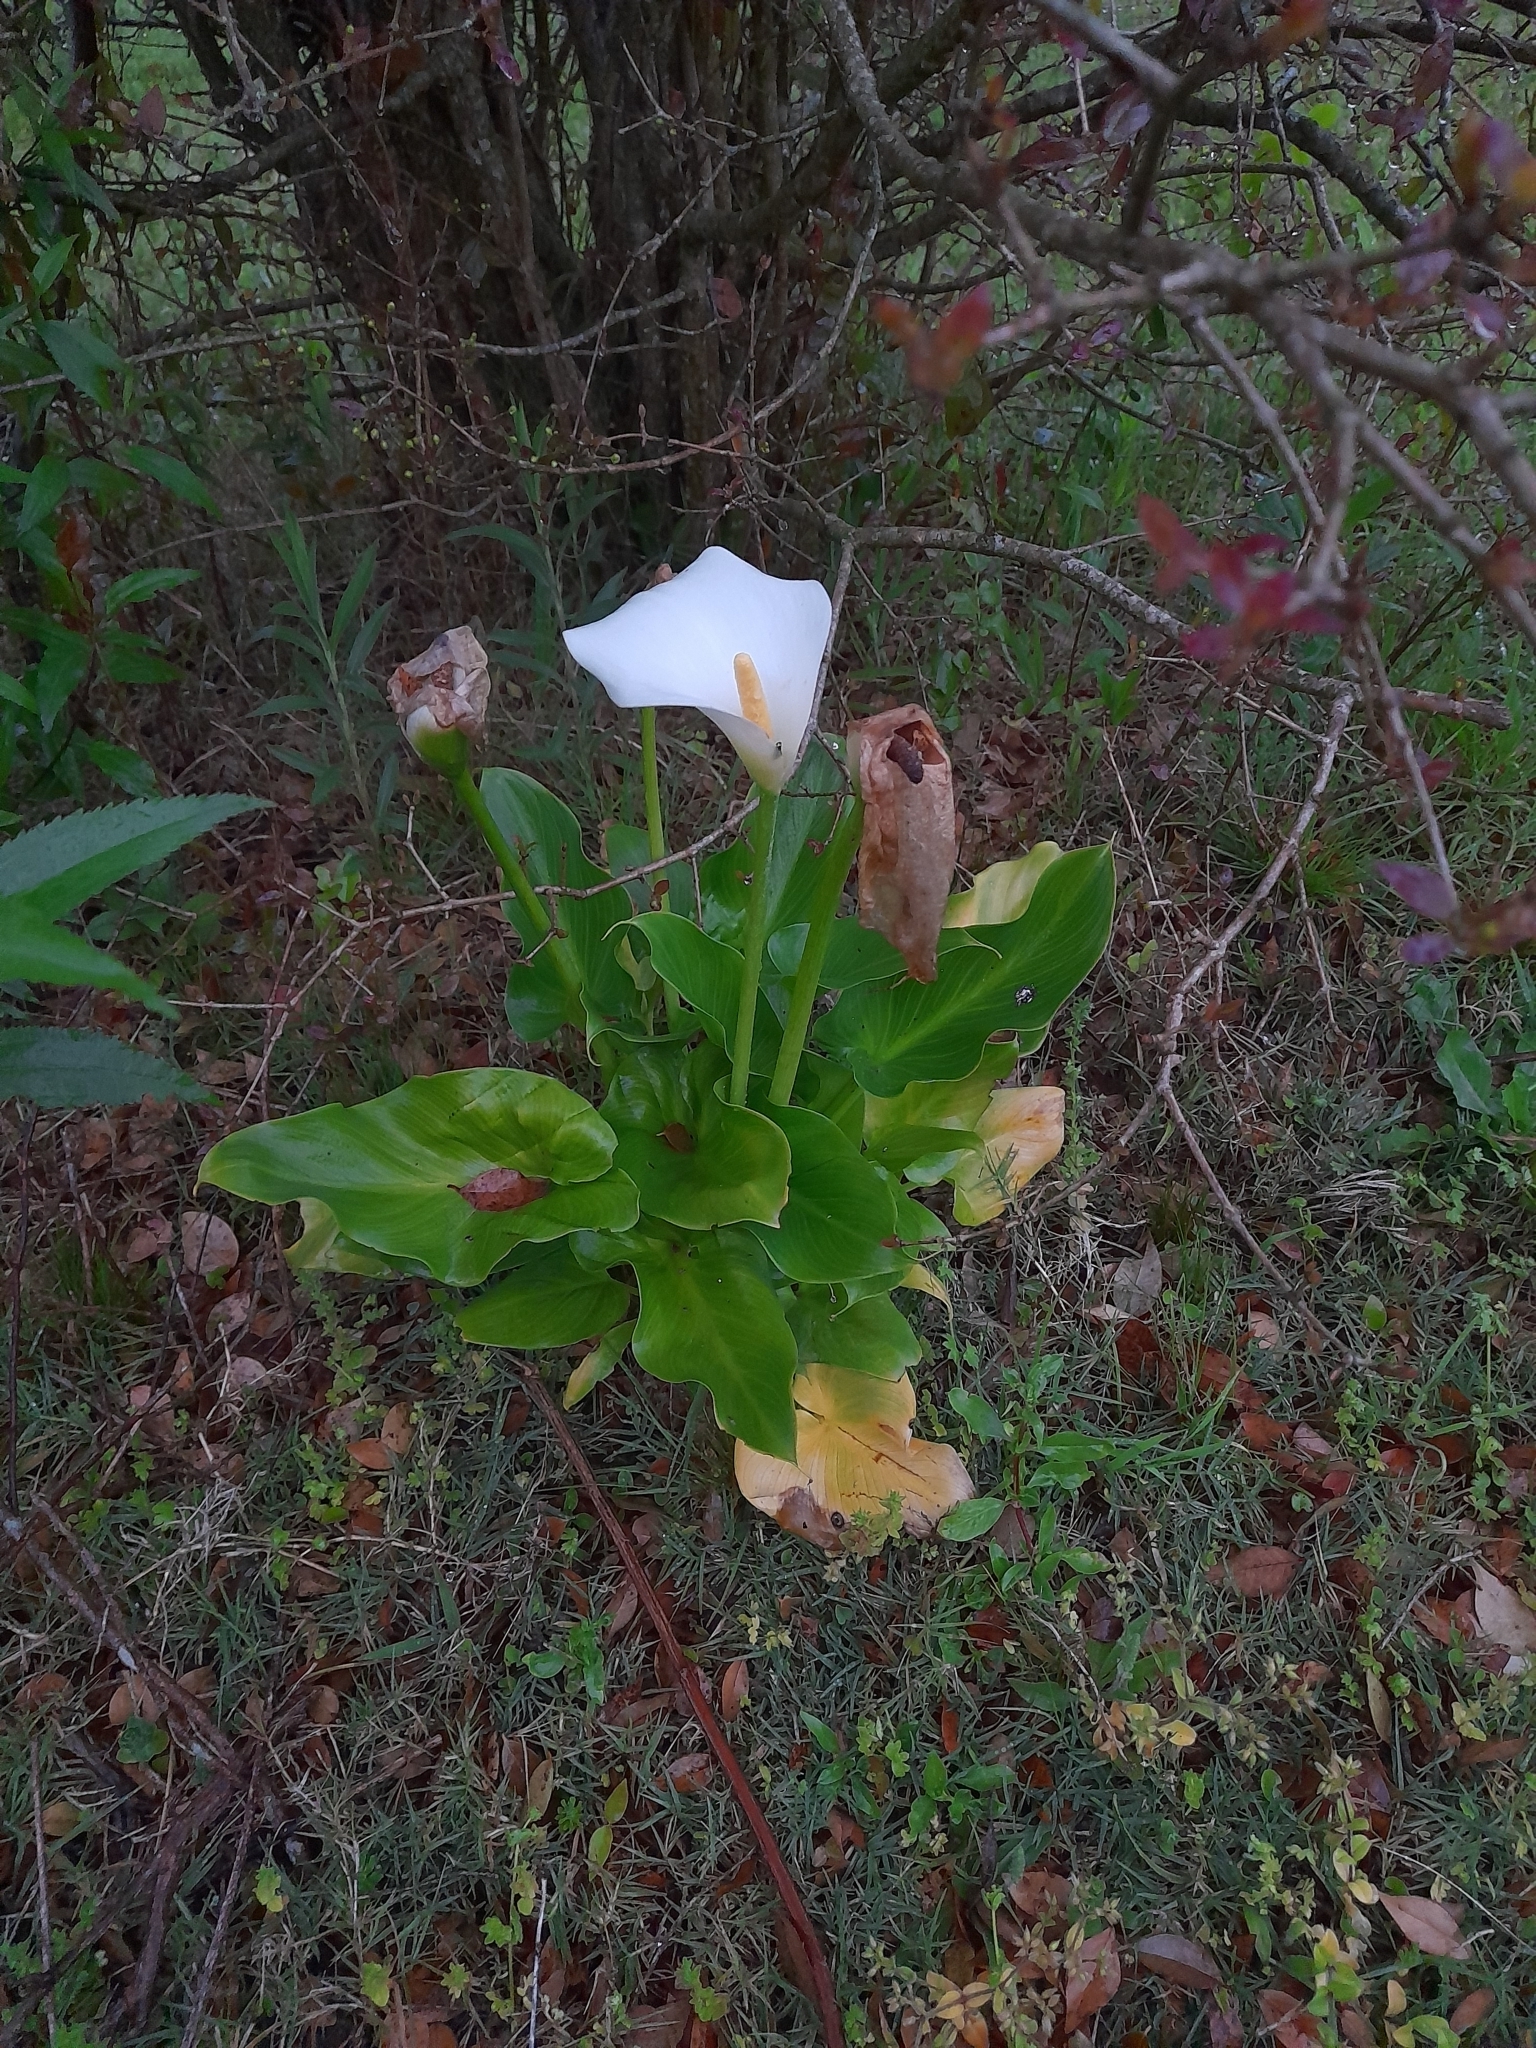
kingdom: Plantae
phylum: Tracheophyta
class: Liliopsida
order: Alismatales
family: Araceae
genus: Zantedeschia
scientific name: Zantedeschia aethiopica
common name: Altar-lily
